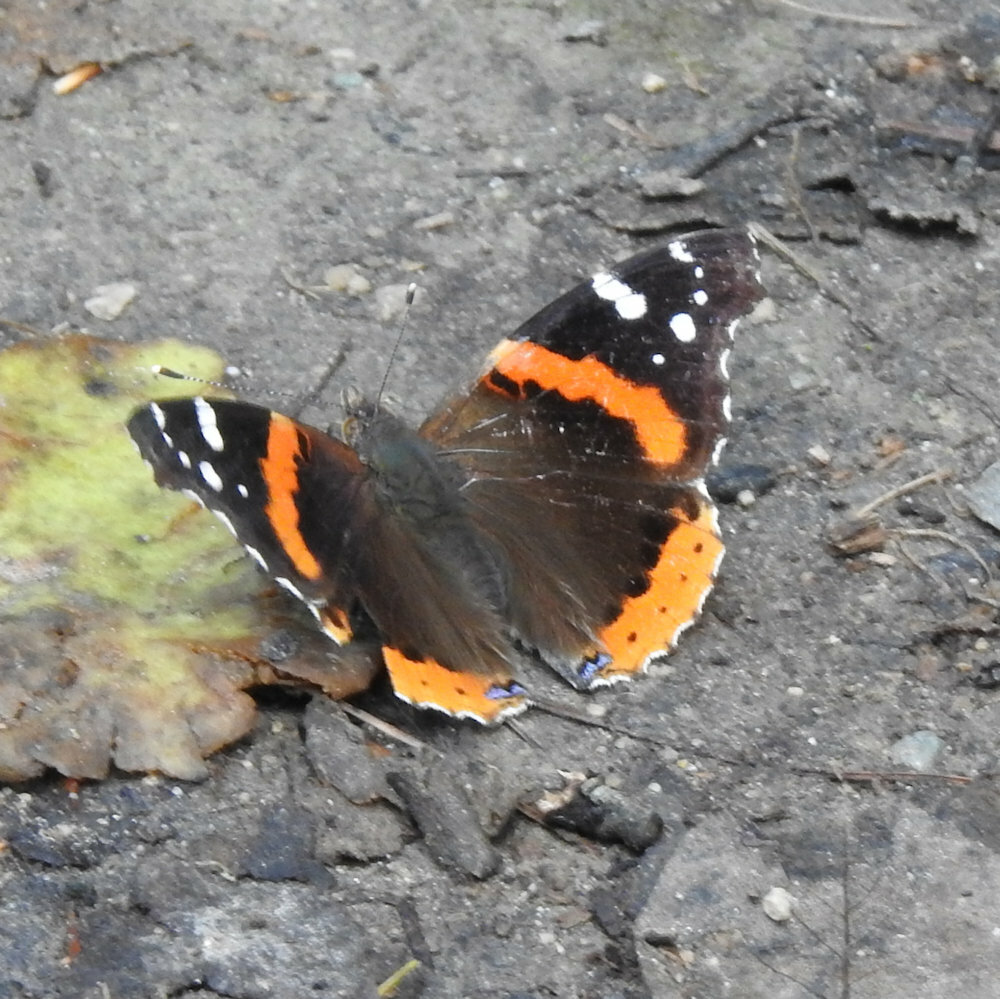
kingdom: Animalia
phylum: Arthropoda
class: Insecta
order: Lepidoptera
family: Nymphalidae
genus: Vanessa
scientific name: Vanessa atalanta
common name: Red admiral
